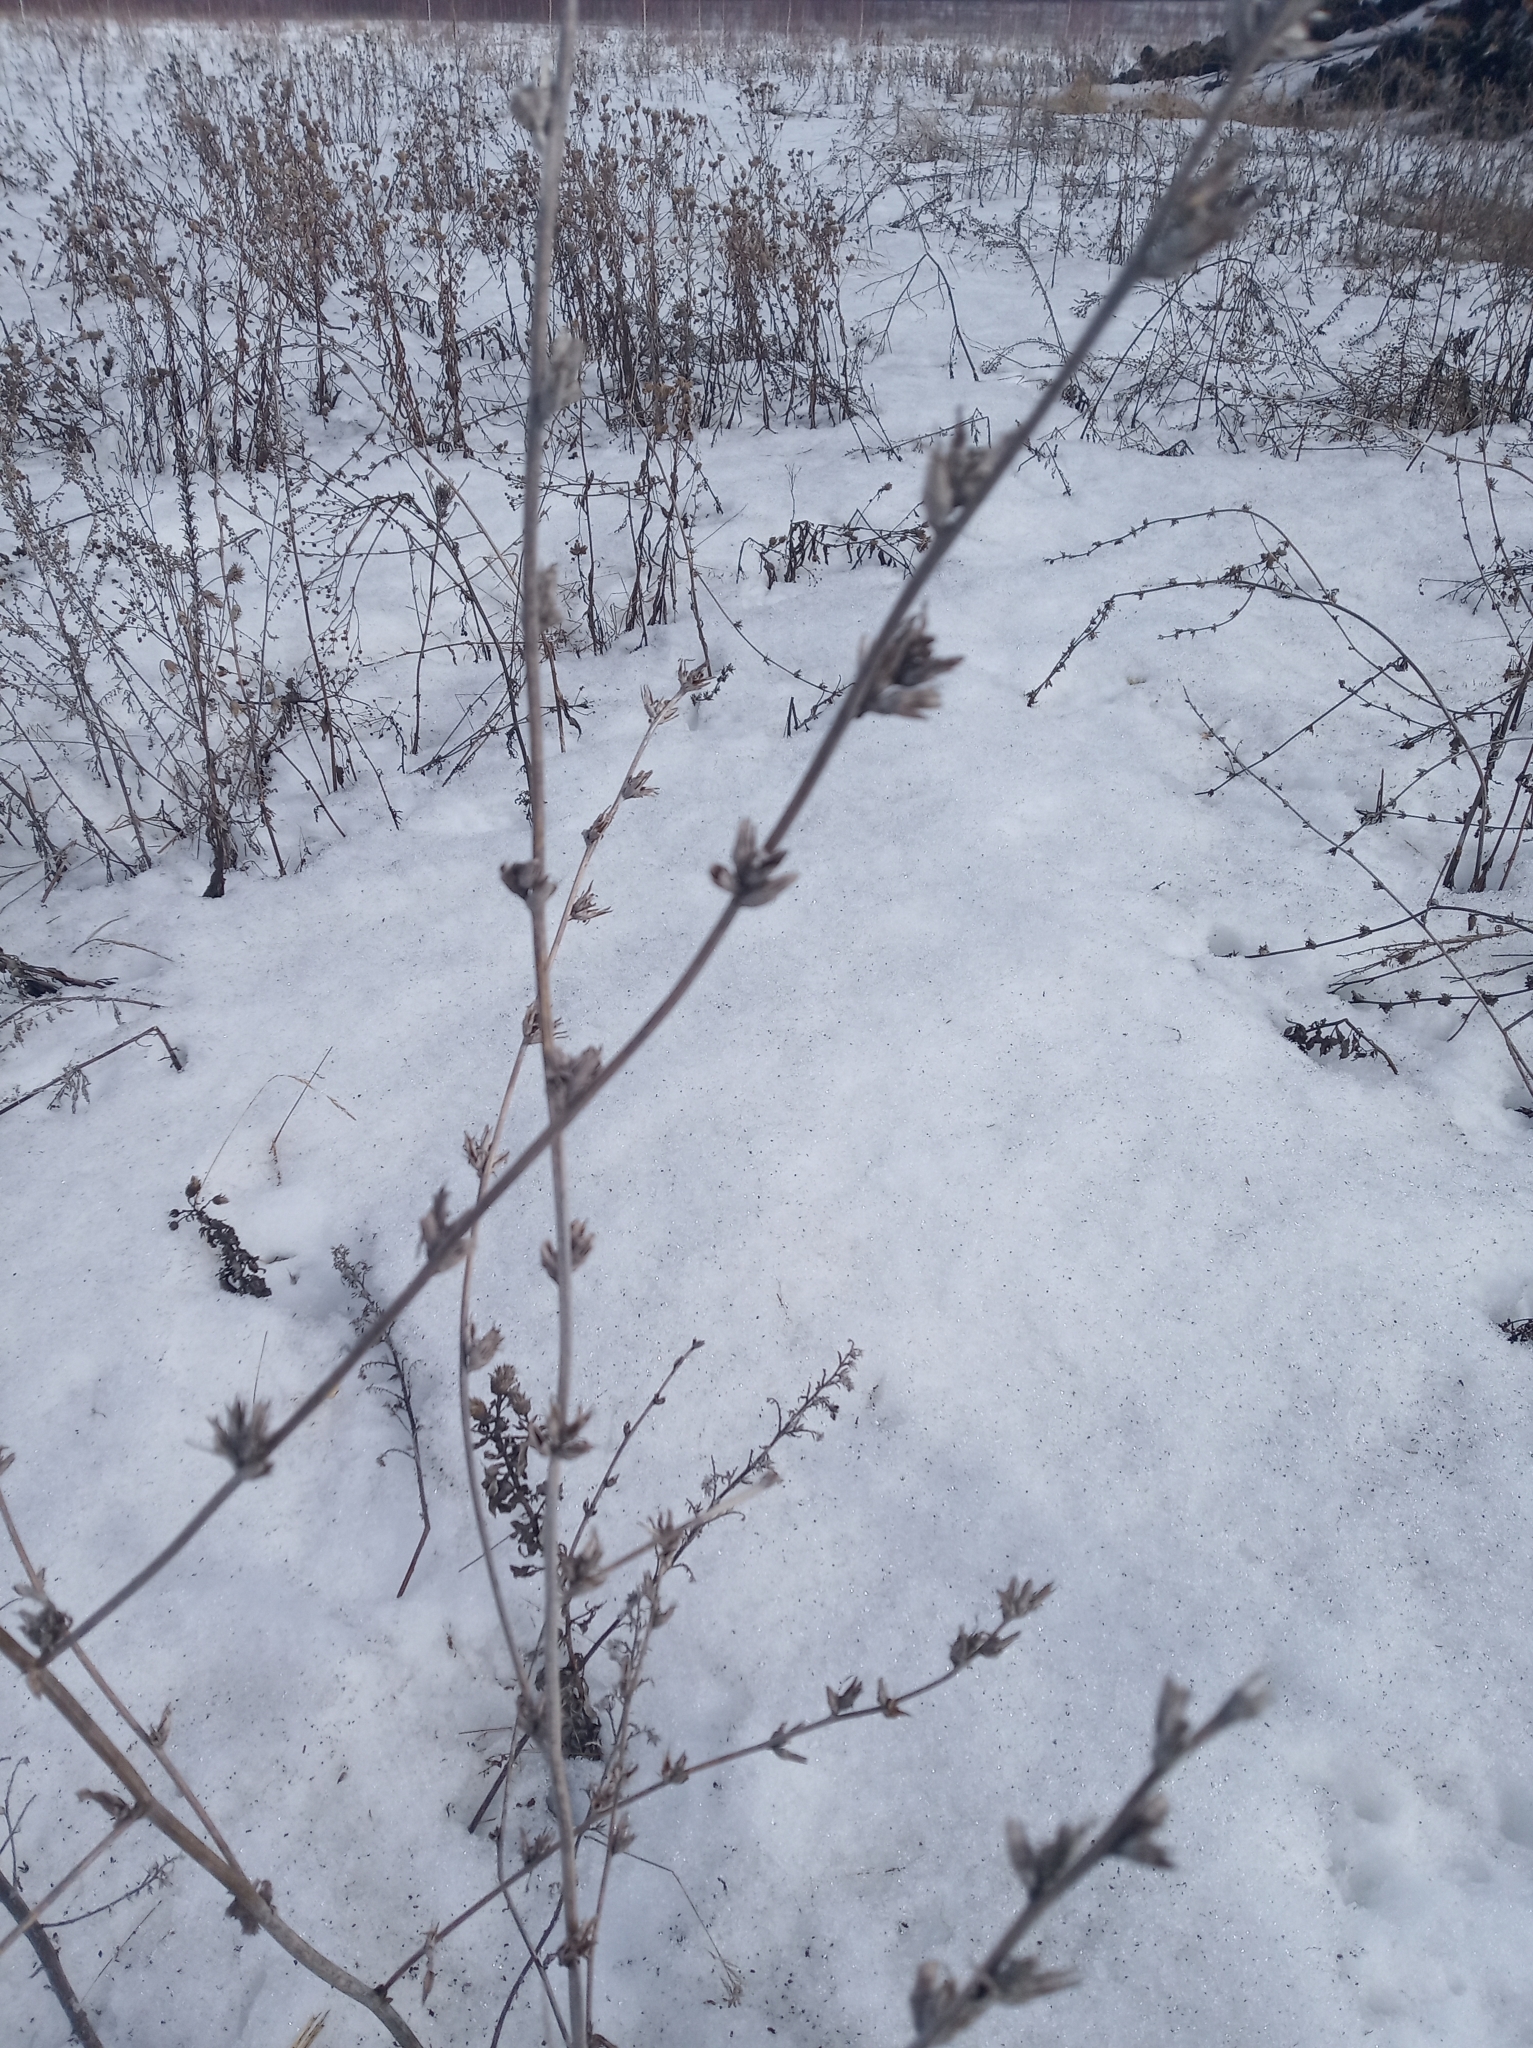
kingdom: Plantae
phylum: Tracheophyta
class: Magnoliopsida
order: Asterales
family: Asteraceae
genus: Cichorium
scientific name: Cichorium intybus
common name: Chicory
